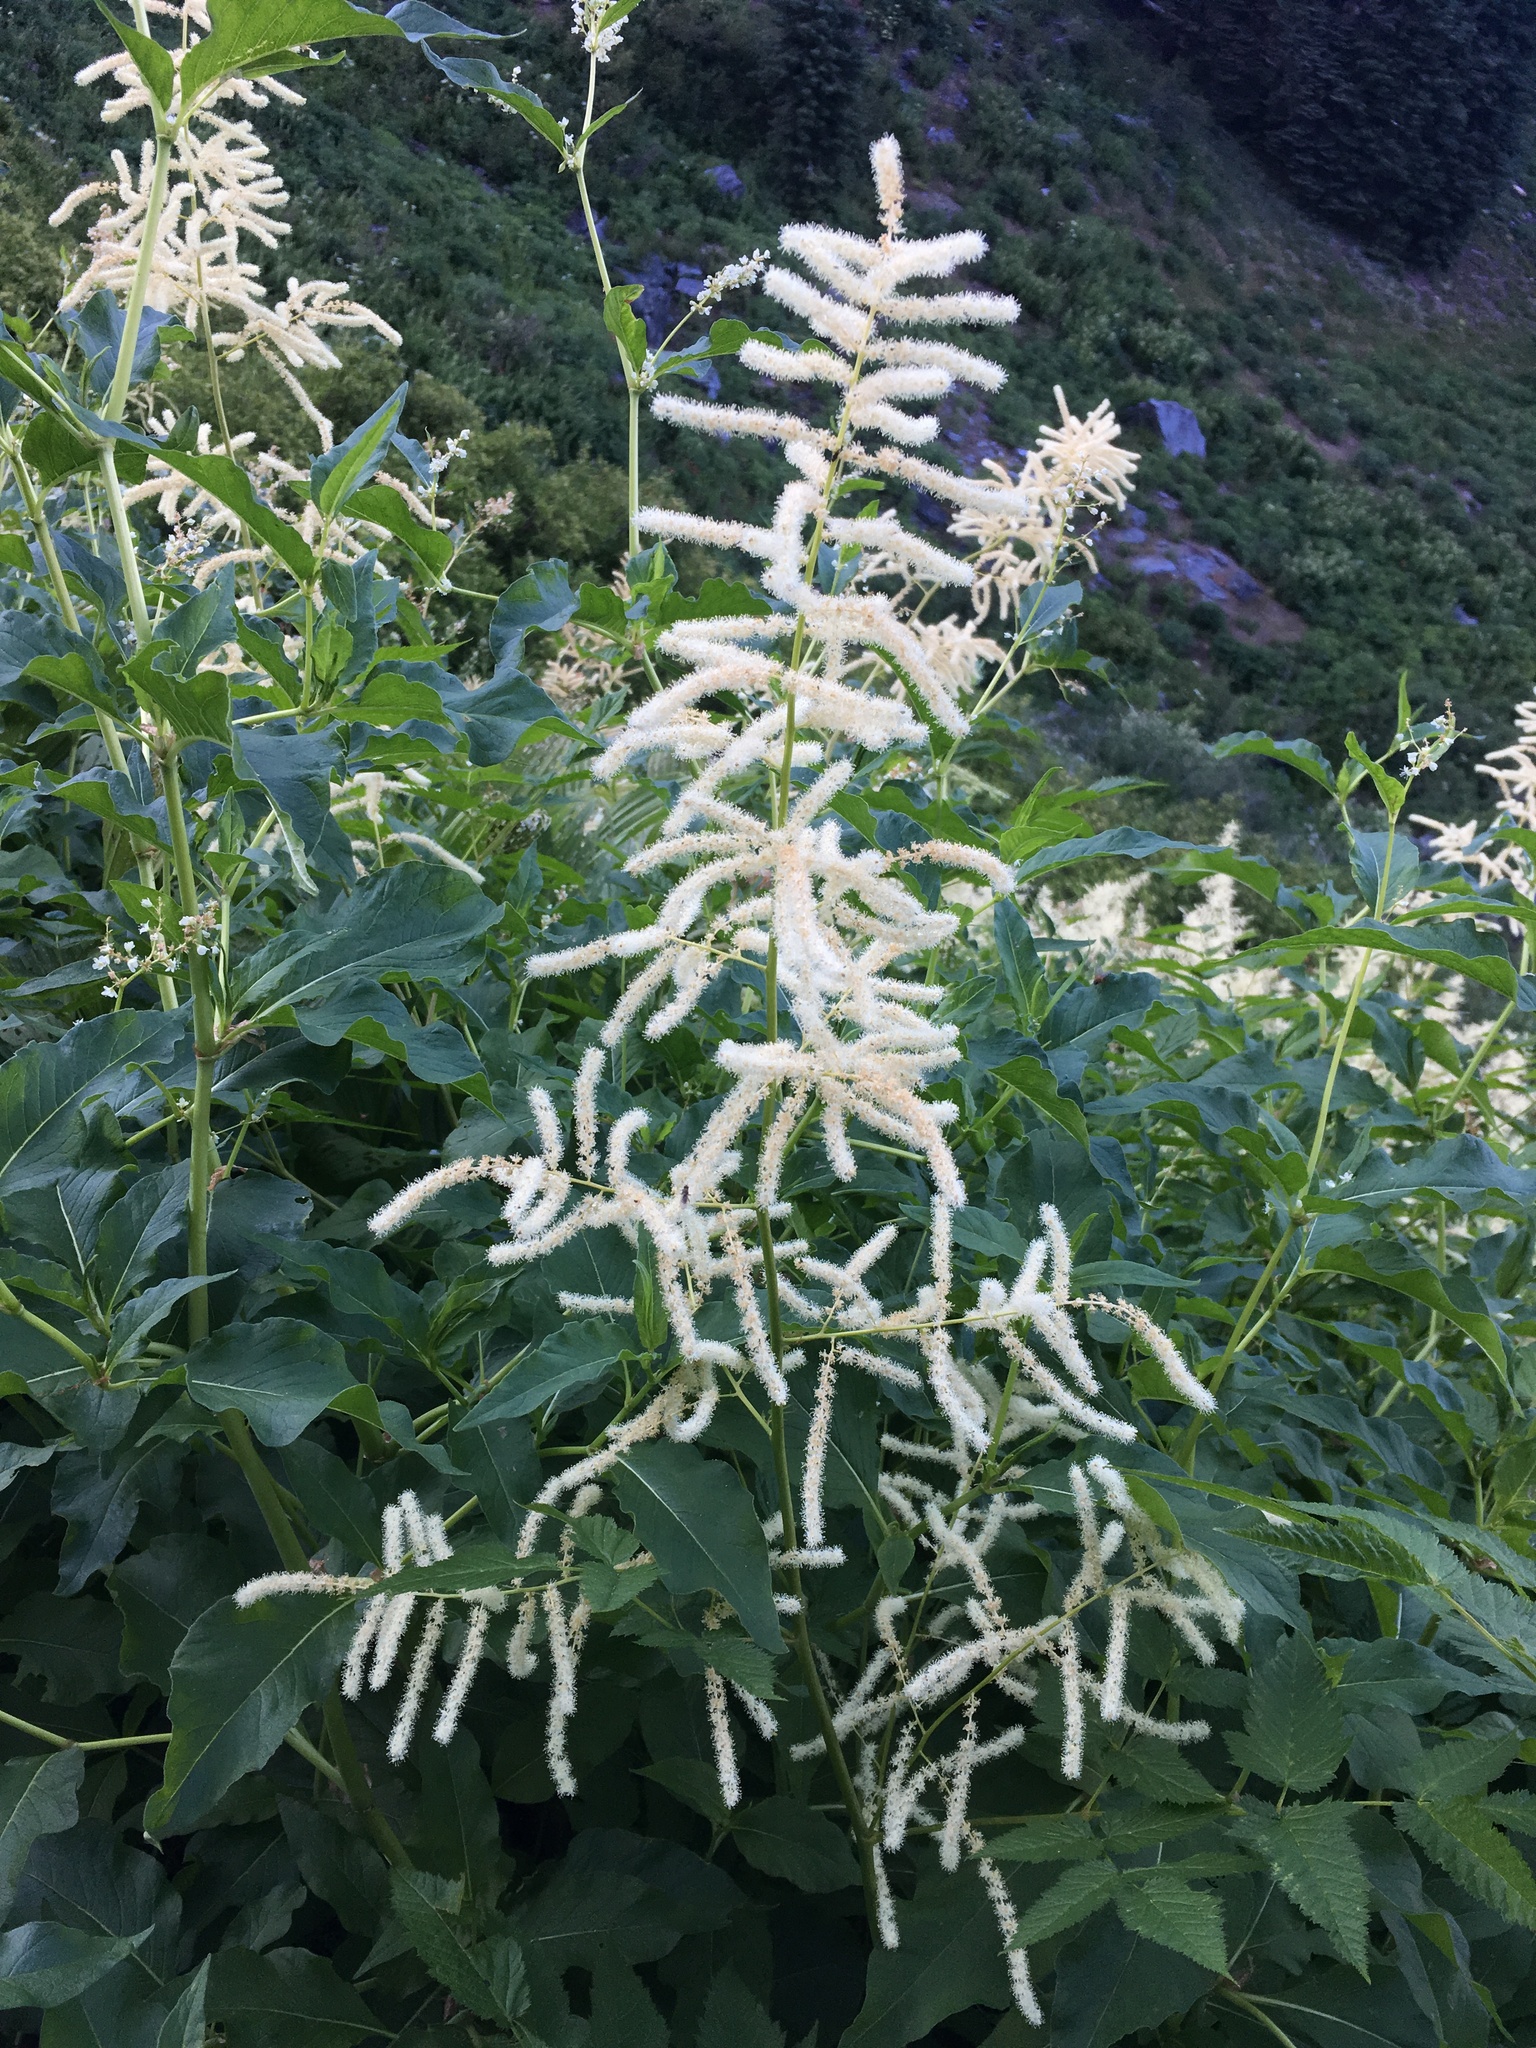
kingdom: Plantae
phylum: Tracheophyta
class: Magnoliopsida
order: Rosales
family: Rosaceae
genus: Aruncus
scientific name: Aruncus dioicus
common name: Buck's-beard
